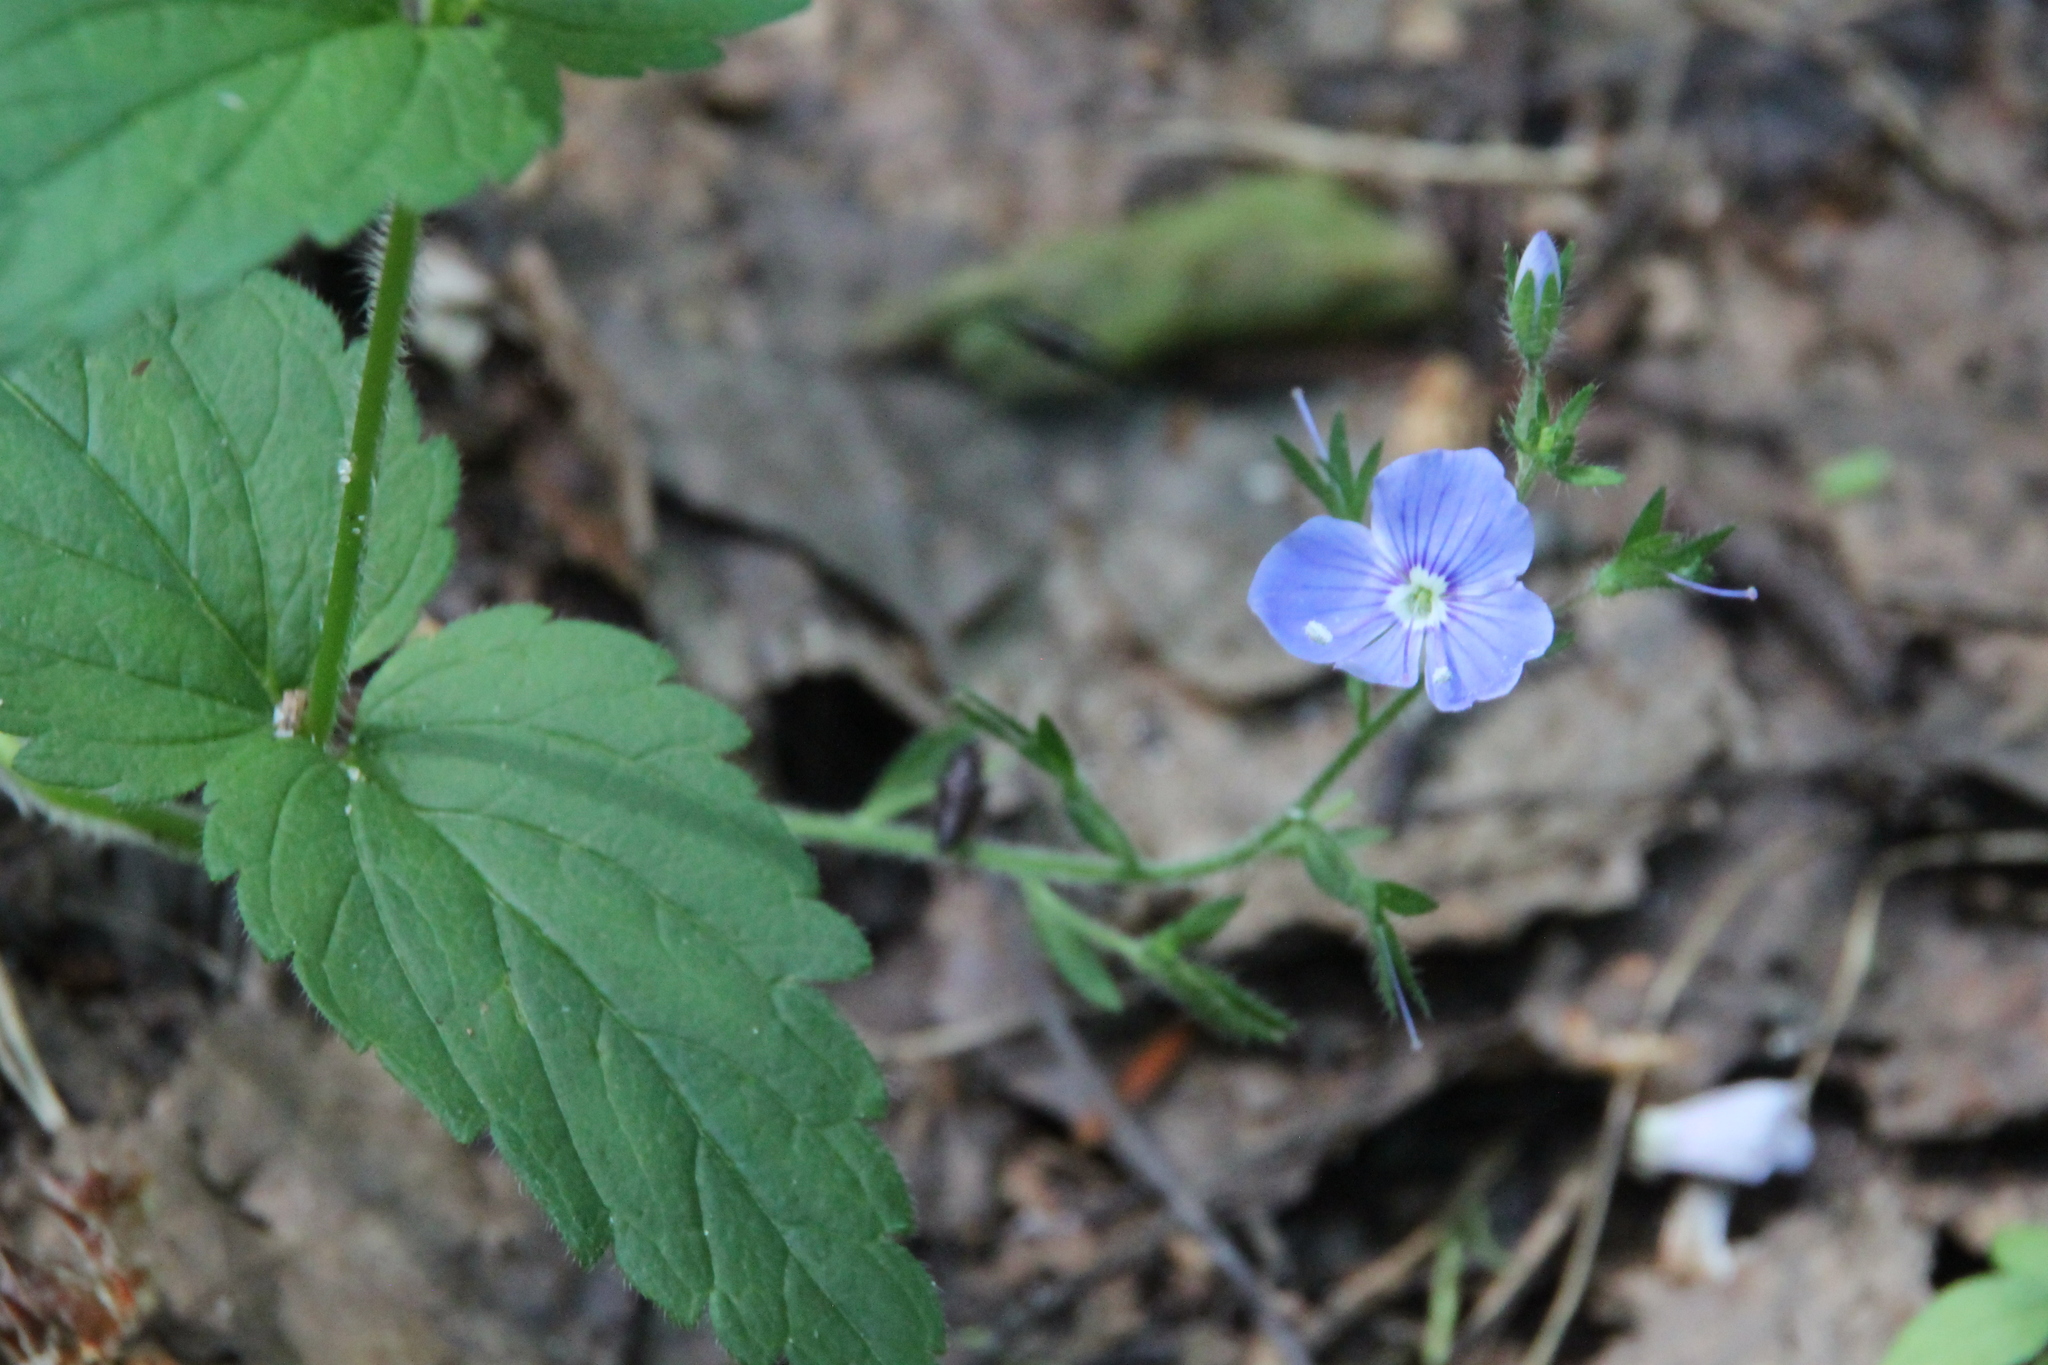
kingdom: Plantae
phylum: Tracheophyta
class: Magnoliopsida
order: Lamiales
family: Plantaginaceae
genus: Veronica
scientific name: Veronica chamaedrys
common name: Germander speedwell
